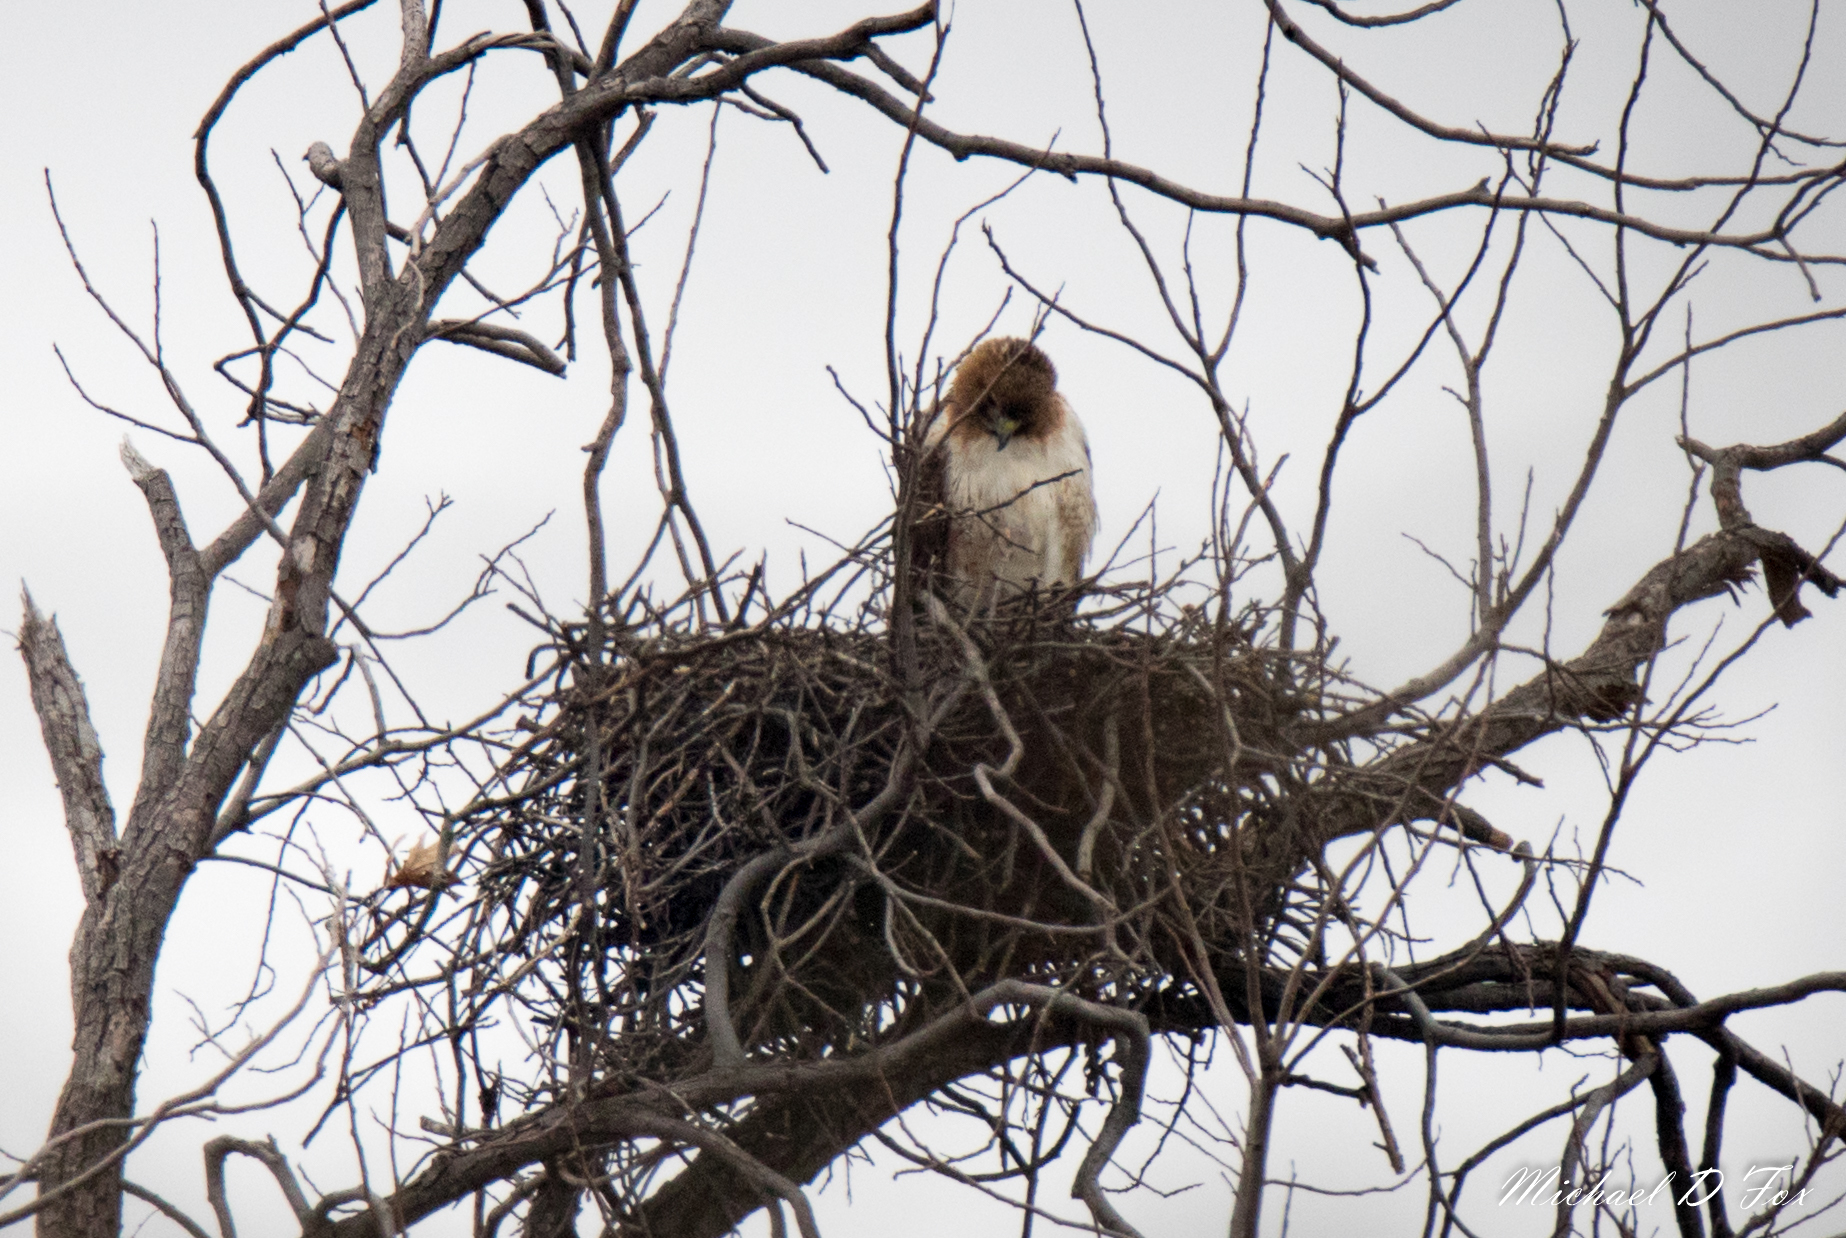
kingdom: Animalia
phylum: Chordata
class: Aves
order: Accipitriformes
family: Accipitridae
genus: Buteo
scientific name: Buteo jamaicensis
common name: Red-tailed hawk
